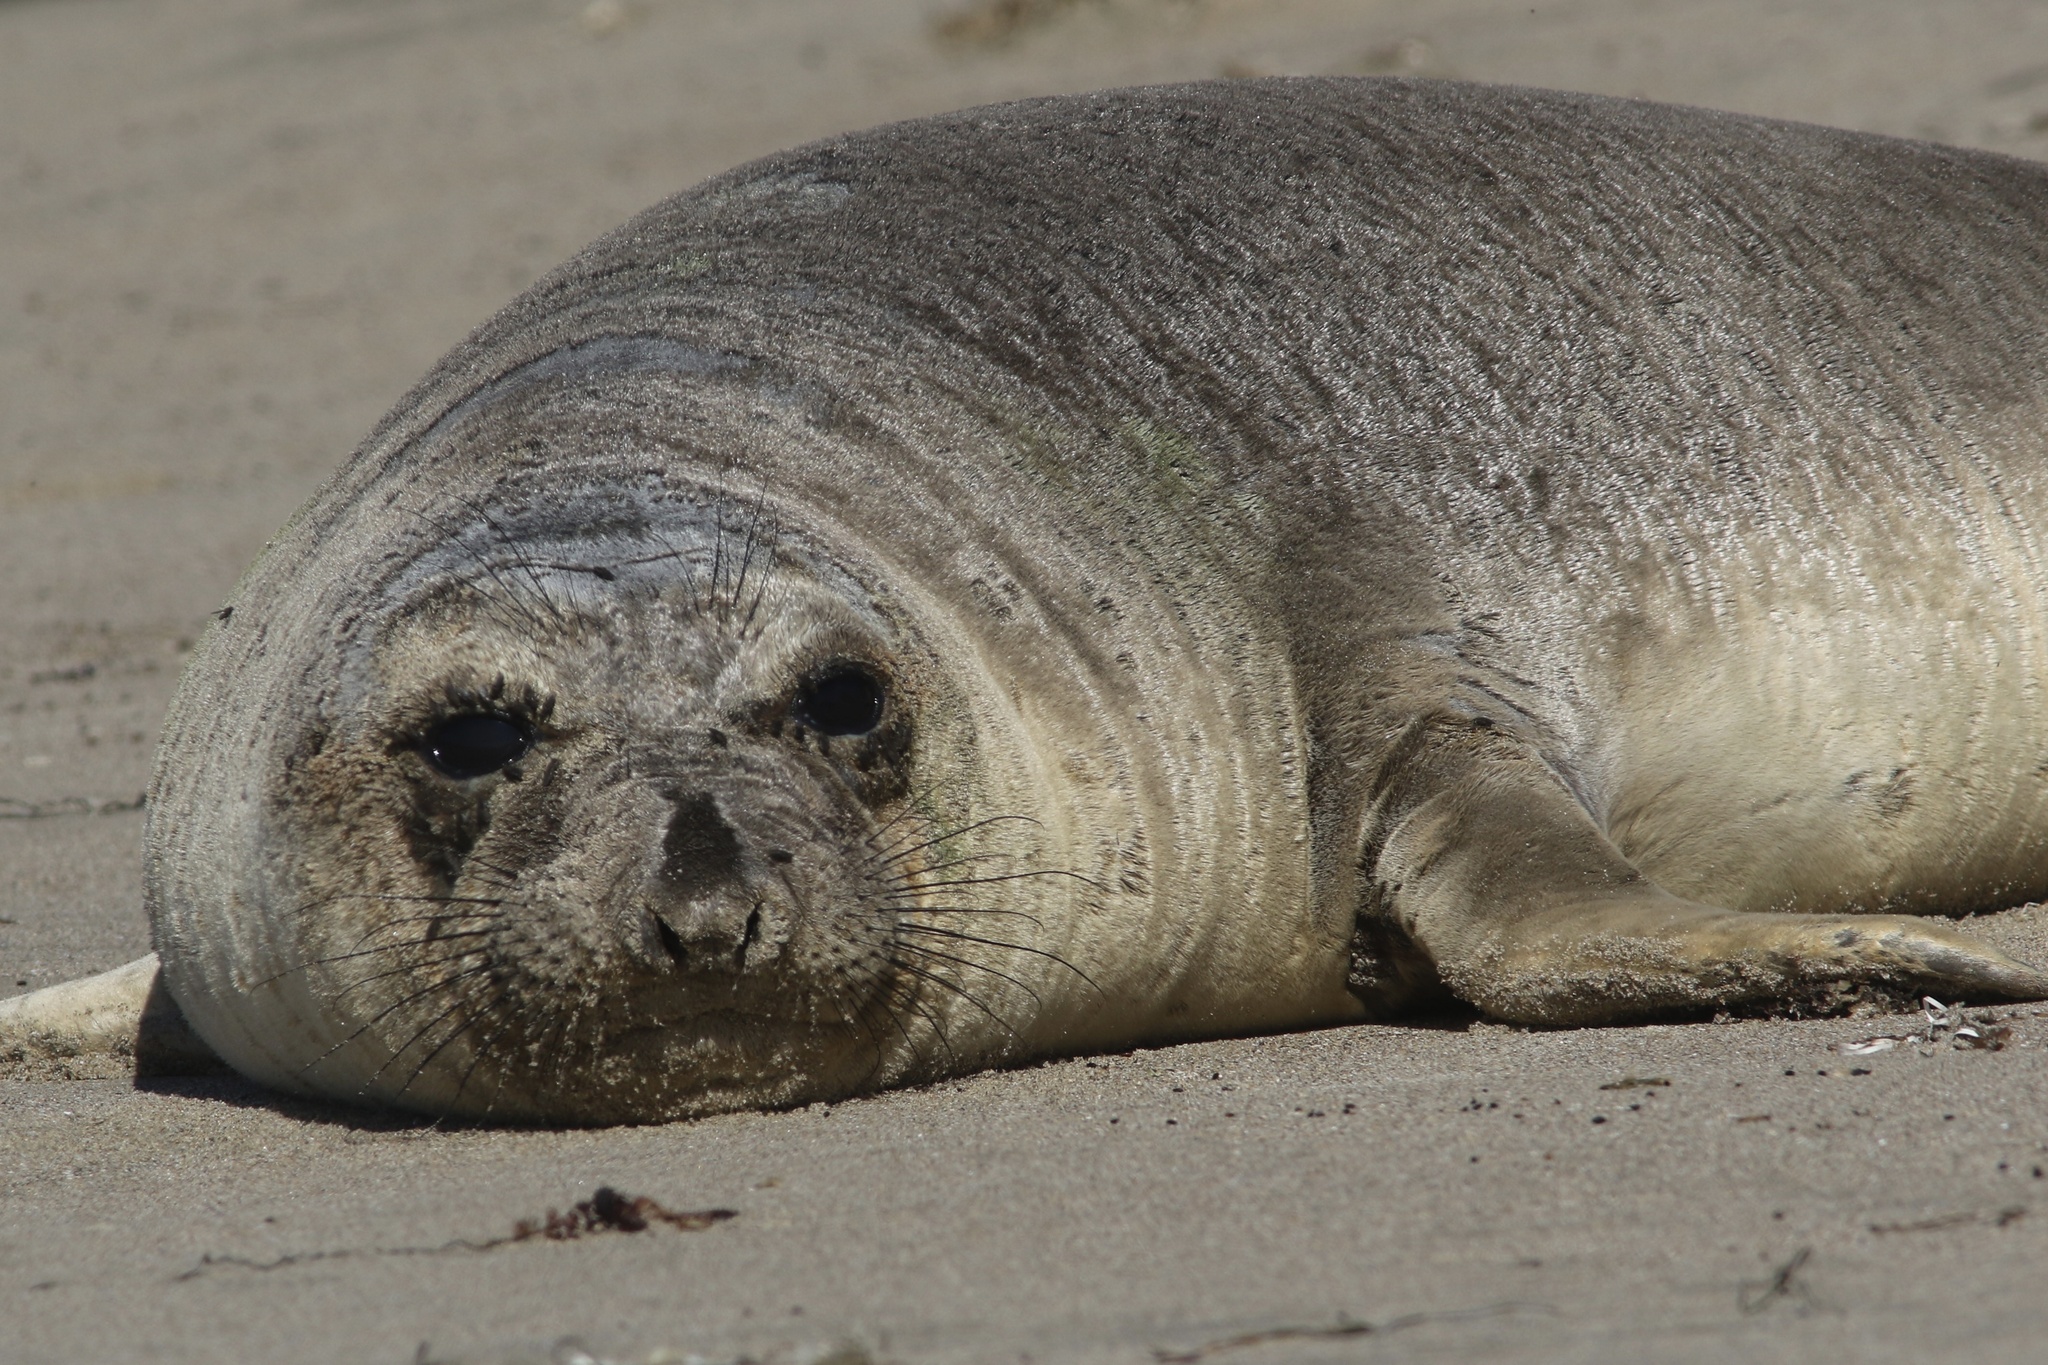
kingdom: Animalia
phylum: Chordata
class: Mammalia
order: Carnivora
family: Phocidae
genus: Mirounga
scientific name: Mirounga angustirostris
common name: Northern elephant seal
